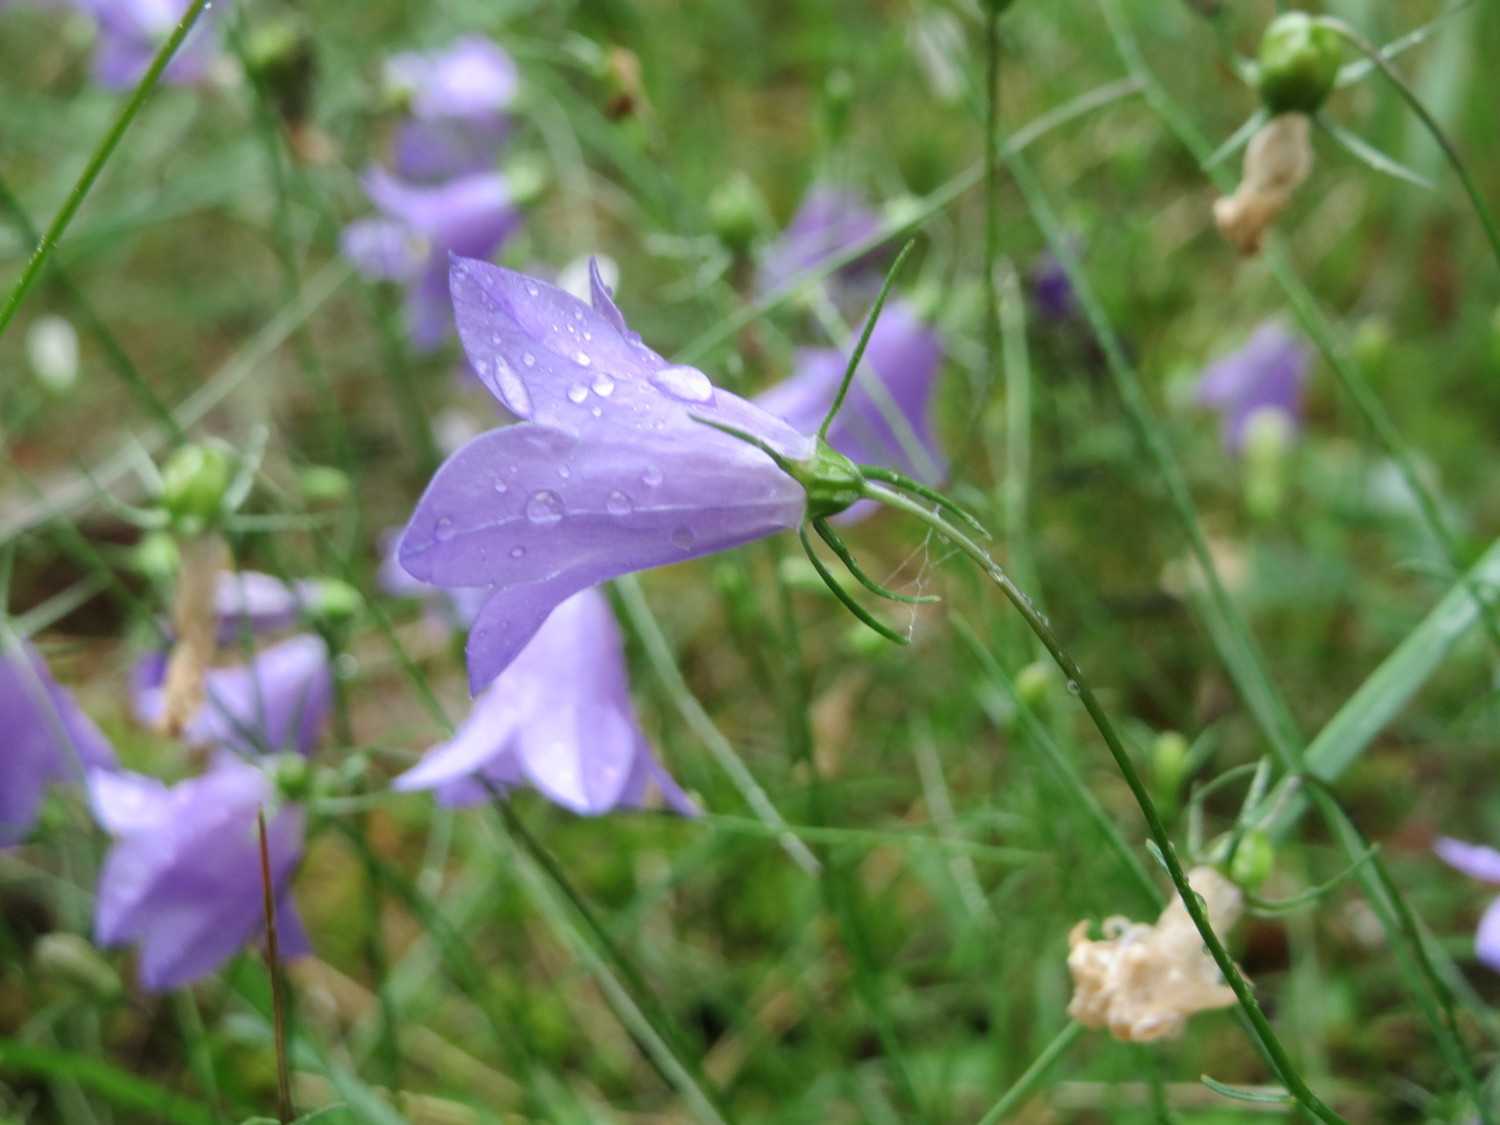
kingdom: Plantae
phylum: Tracheophyta
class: Magnoliopsida
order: Asterales
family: Campanulaceae
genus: Campanula
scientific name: Campanula rotundifolia
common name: Harebell
